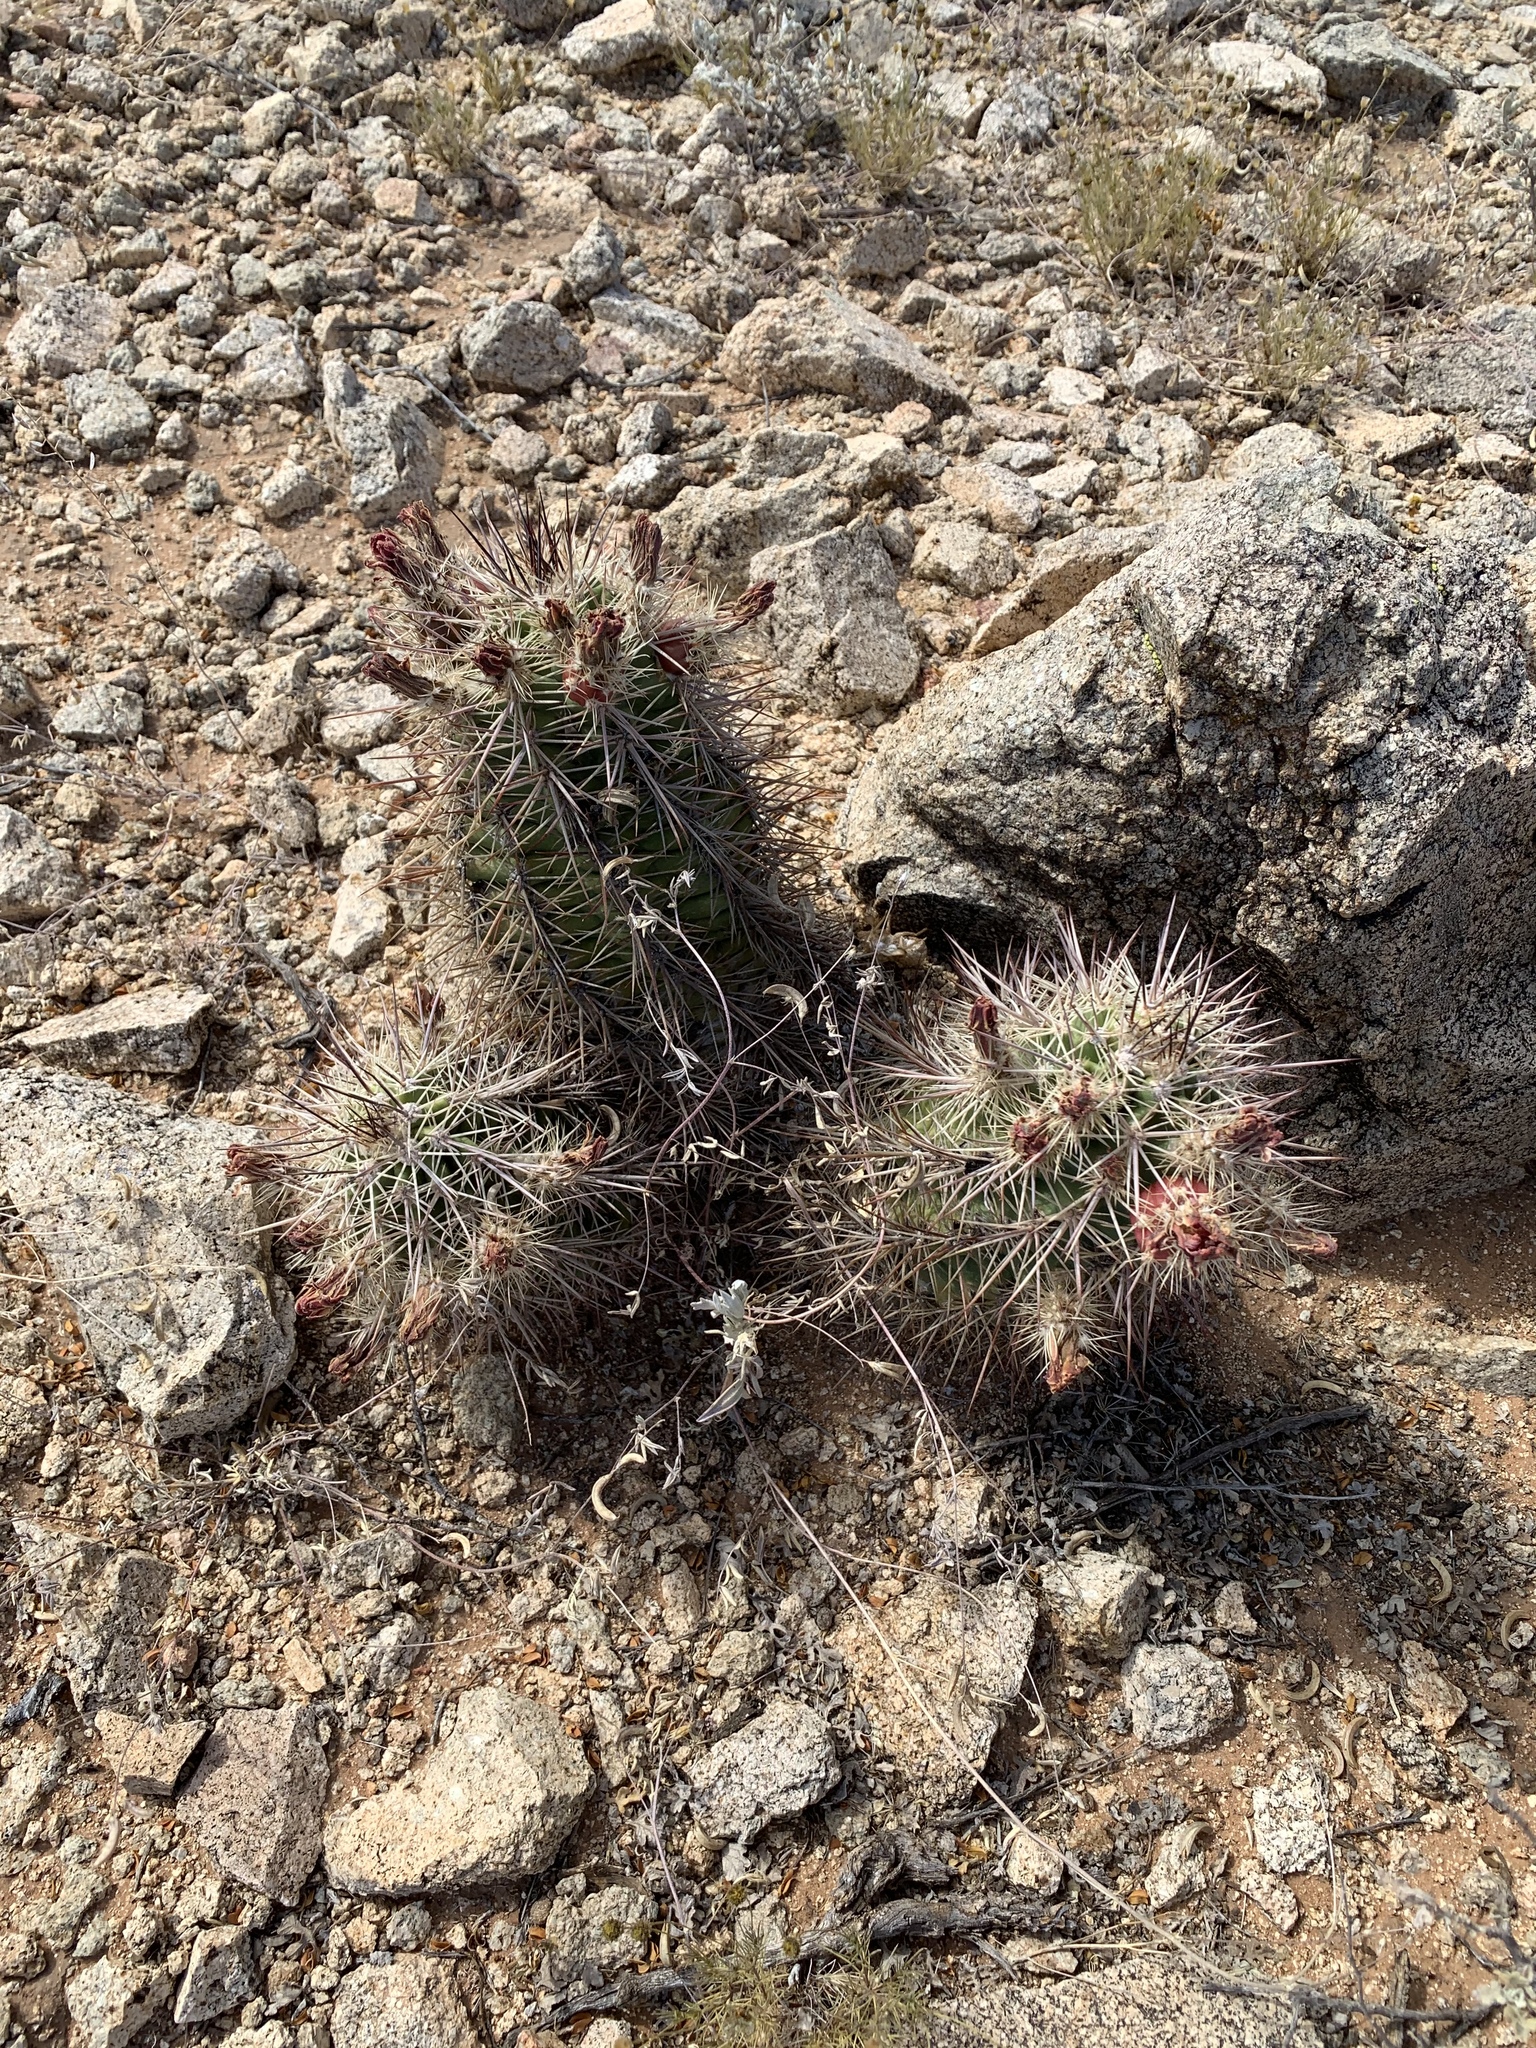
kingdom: Plantae
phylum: Tracheophyta
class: Magnoliopsida
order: Caryophyllales
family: Cactaceae
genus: Echinocereus
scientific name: Echinocereus coccineus
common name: Scarlet hedgehog cactus
